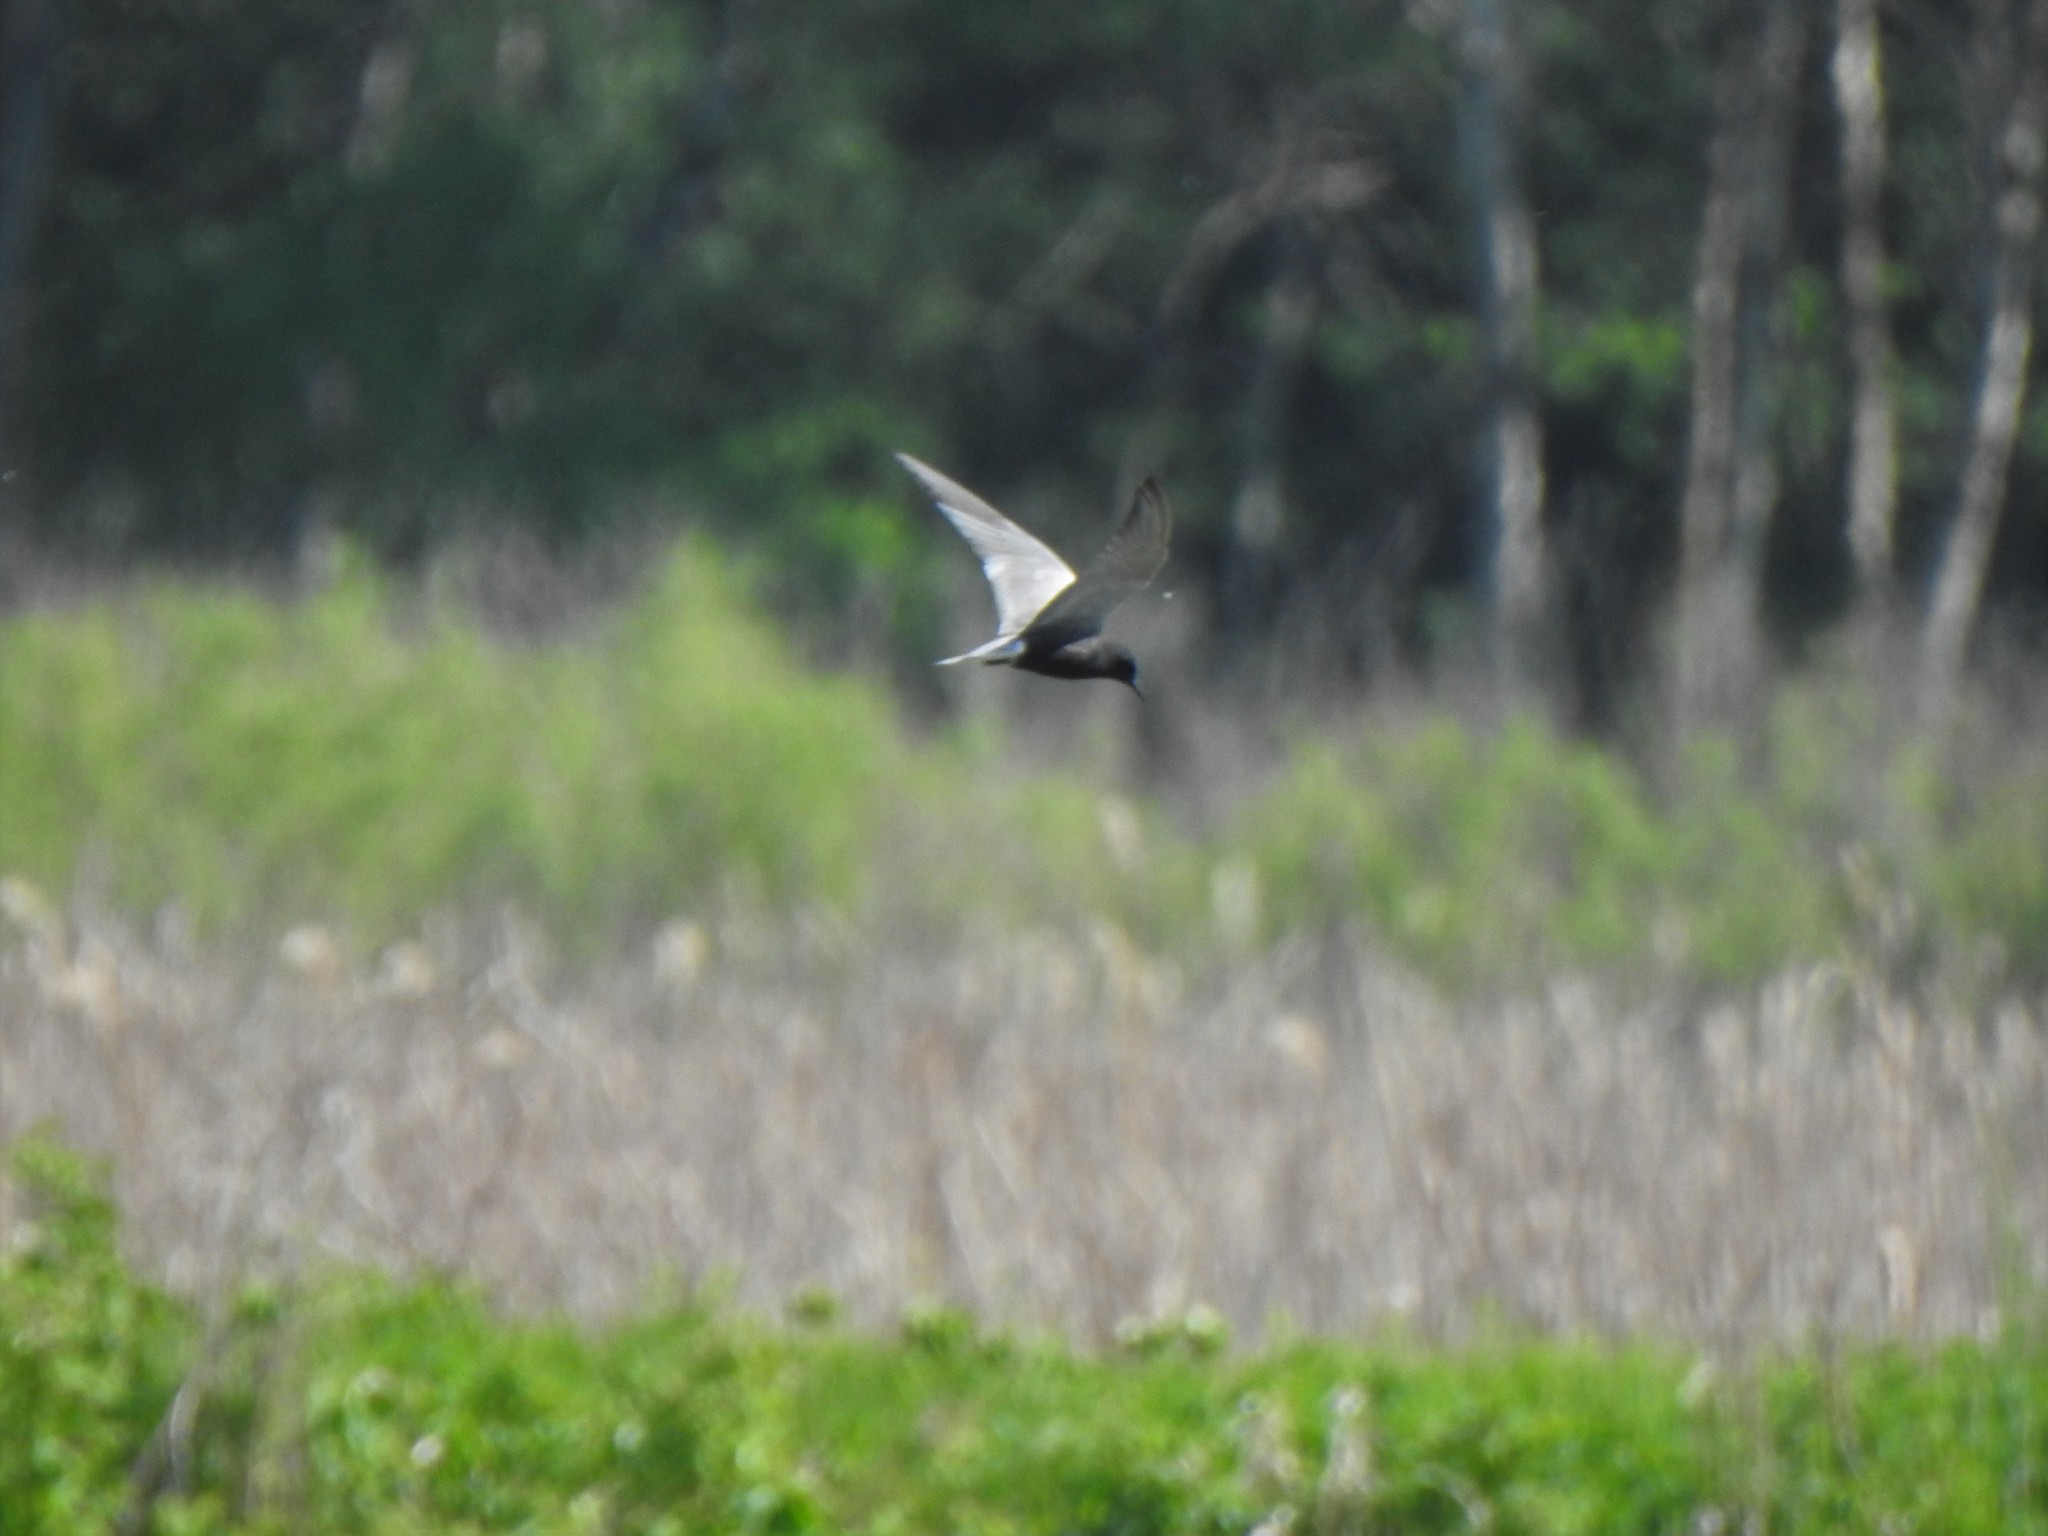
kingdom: Animalia
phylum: Chordata
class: Aves
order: Charadriiformes
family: Laridae
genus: Chlidonias
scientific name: Chlidonias niger
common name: Black tern
